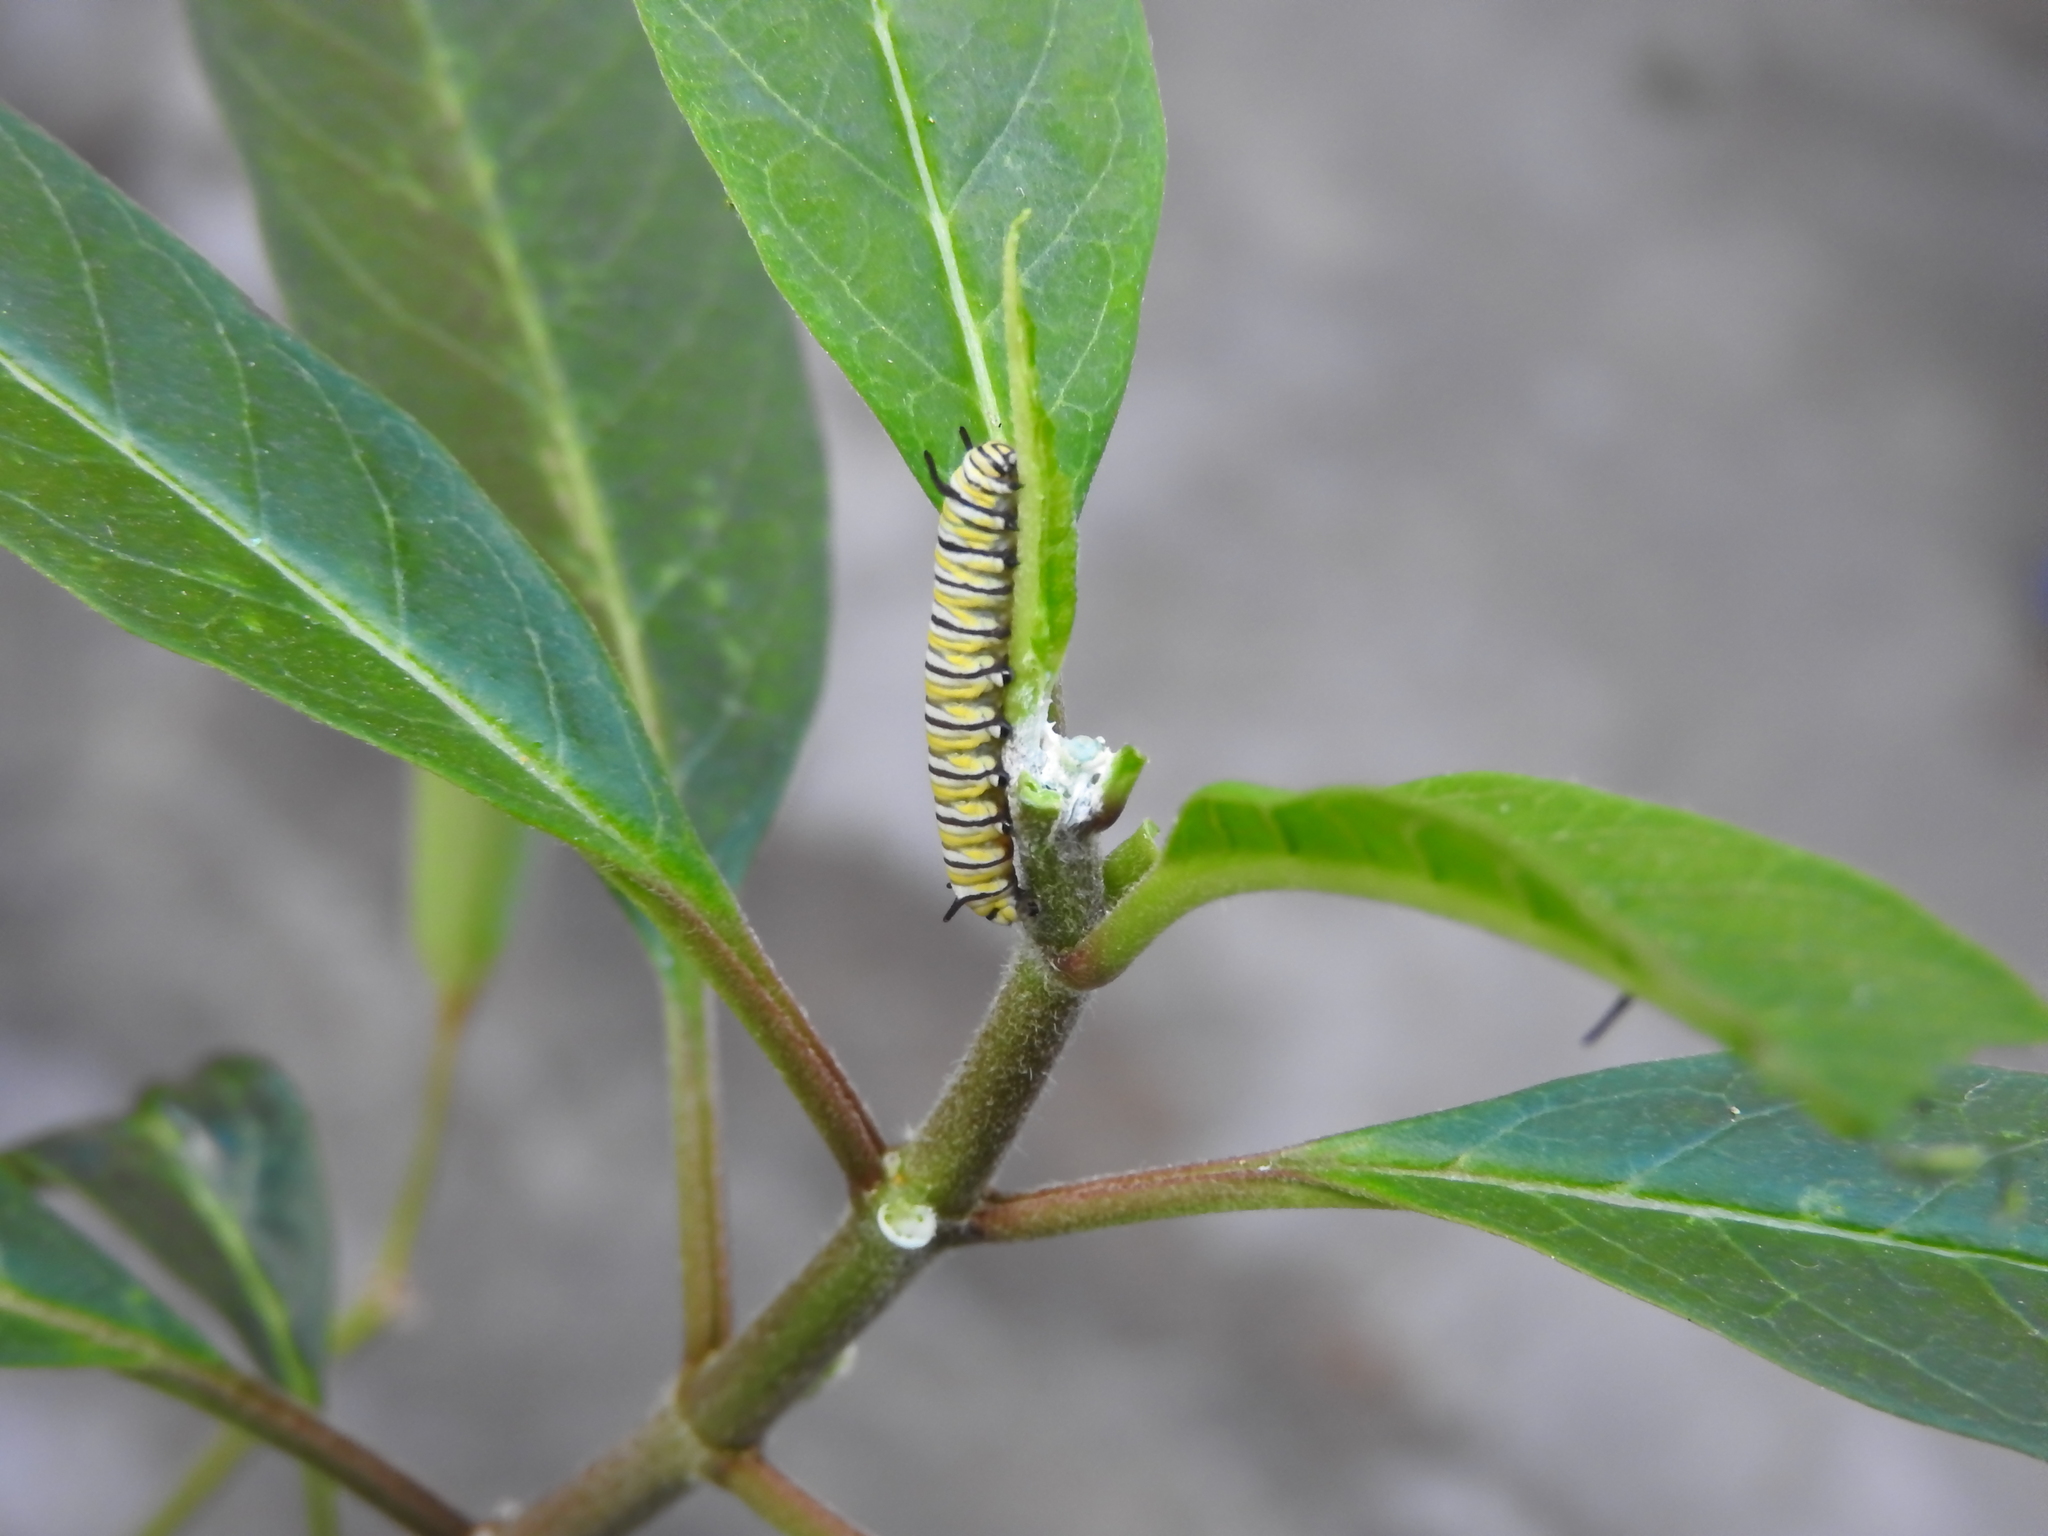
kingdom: Animalia
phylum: Arthropoda
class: Insecta
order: Lepidoptera
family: Nymphalidae
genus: Danaus
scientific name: Danaus plexippus
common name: Monarch
